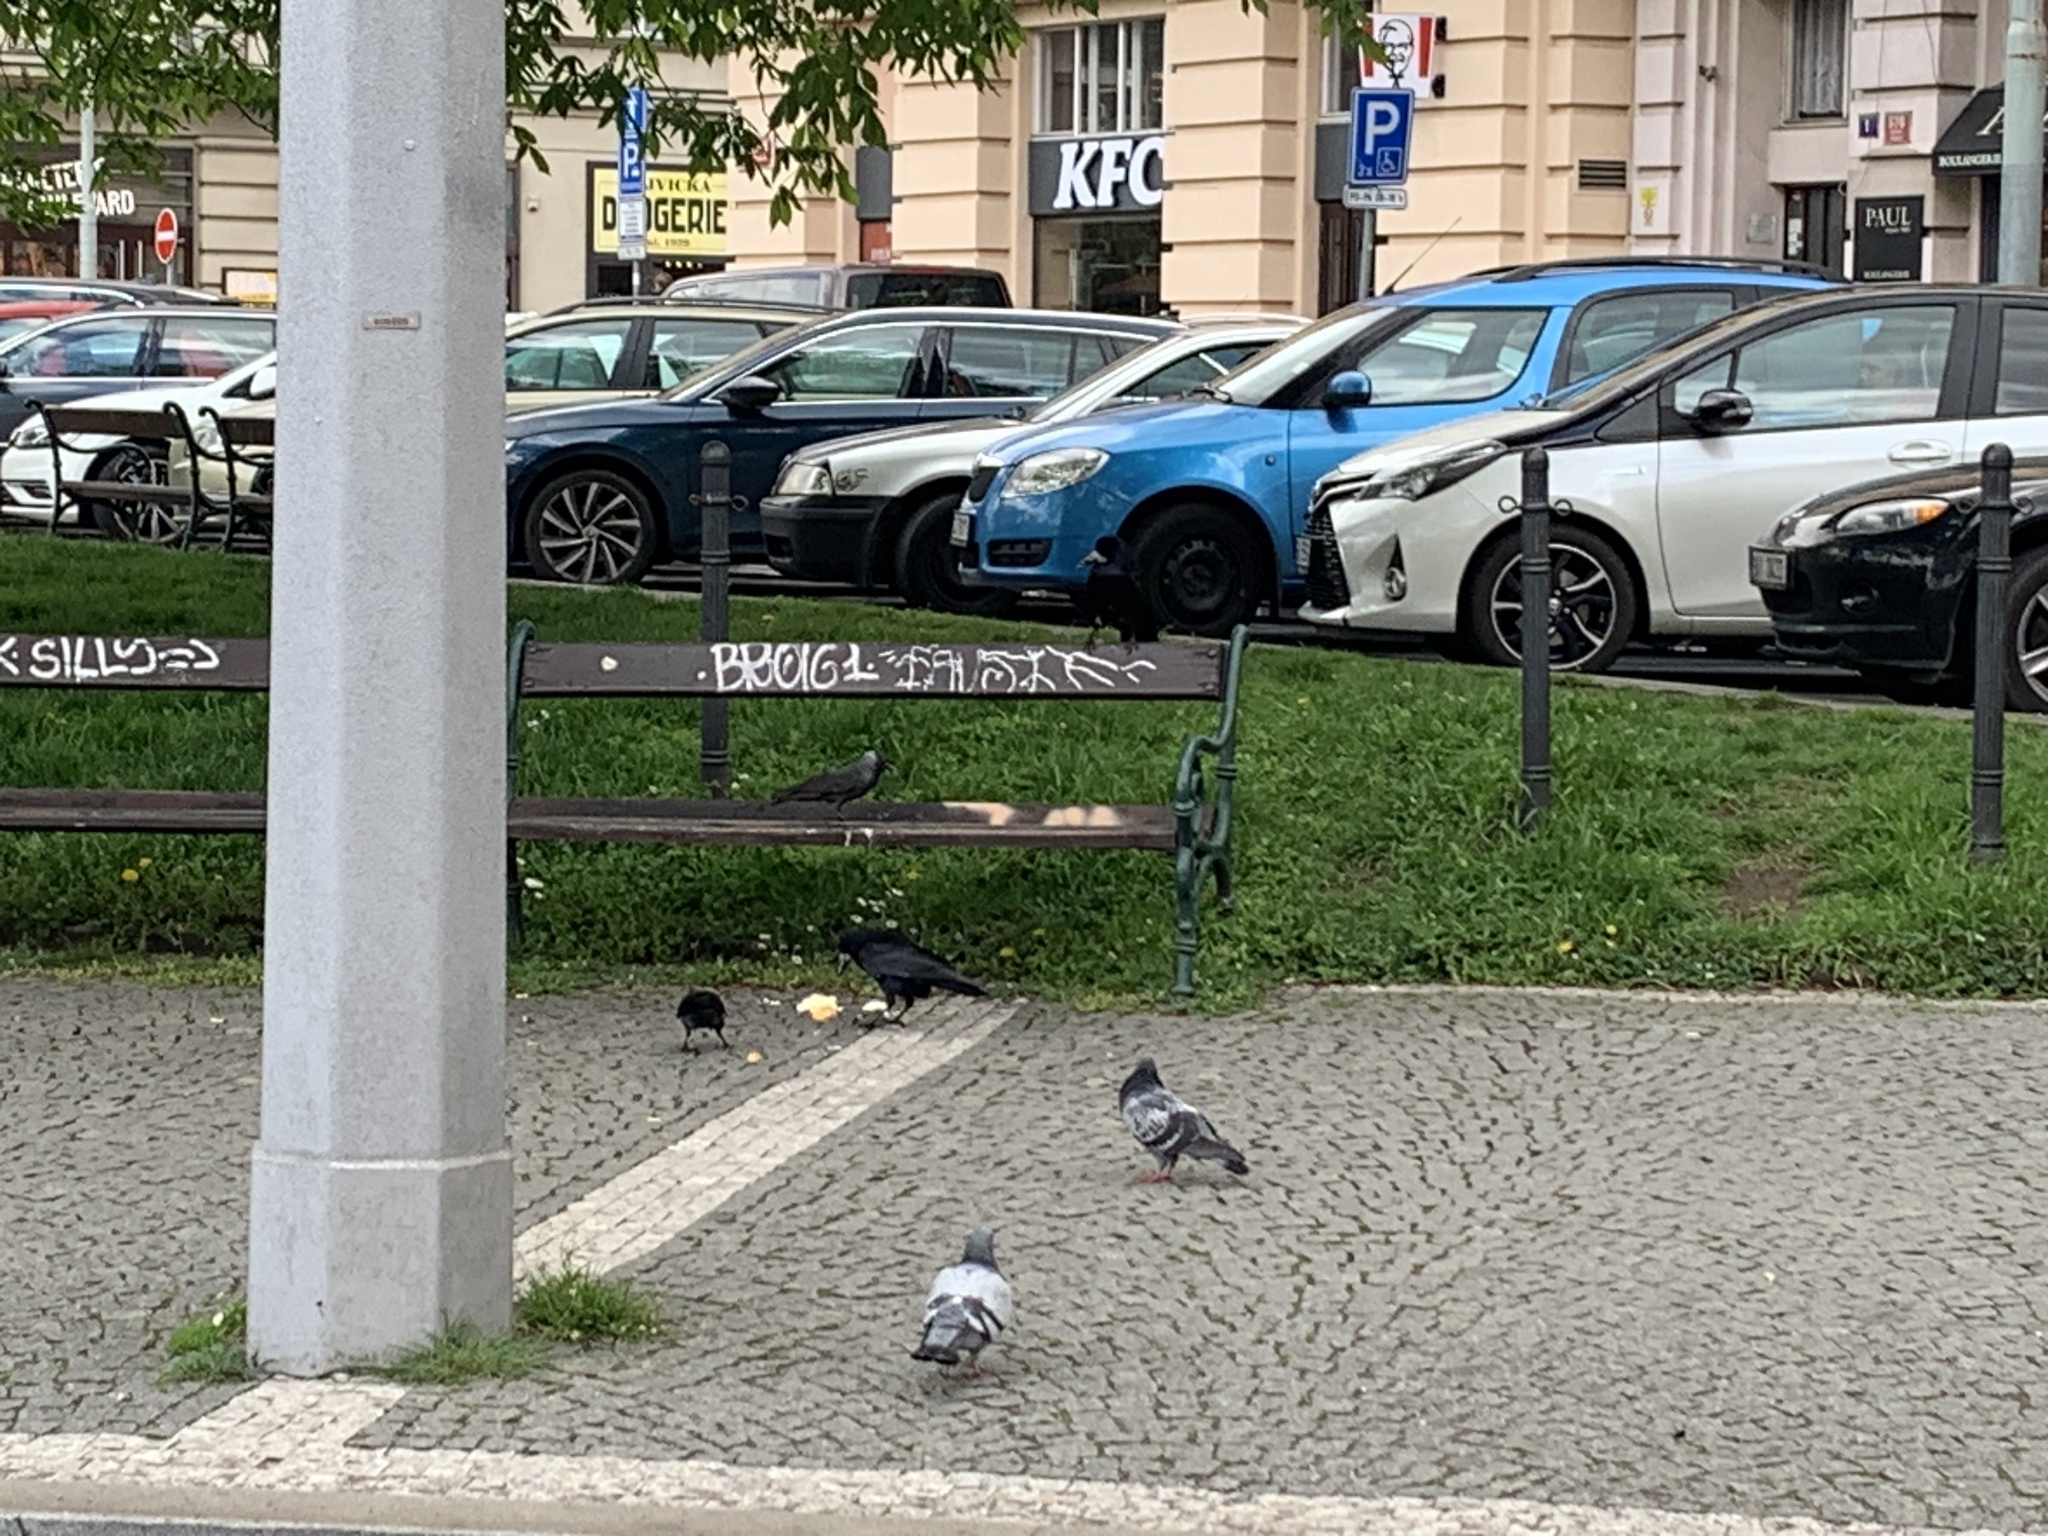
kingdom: Animalia
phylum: Chordata
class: Aves
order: Passeriformes
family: Corvidae
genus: Coloeus
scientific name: Coloeus monedula
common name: Western jackdaw
